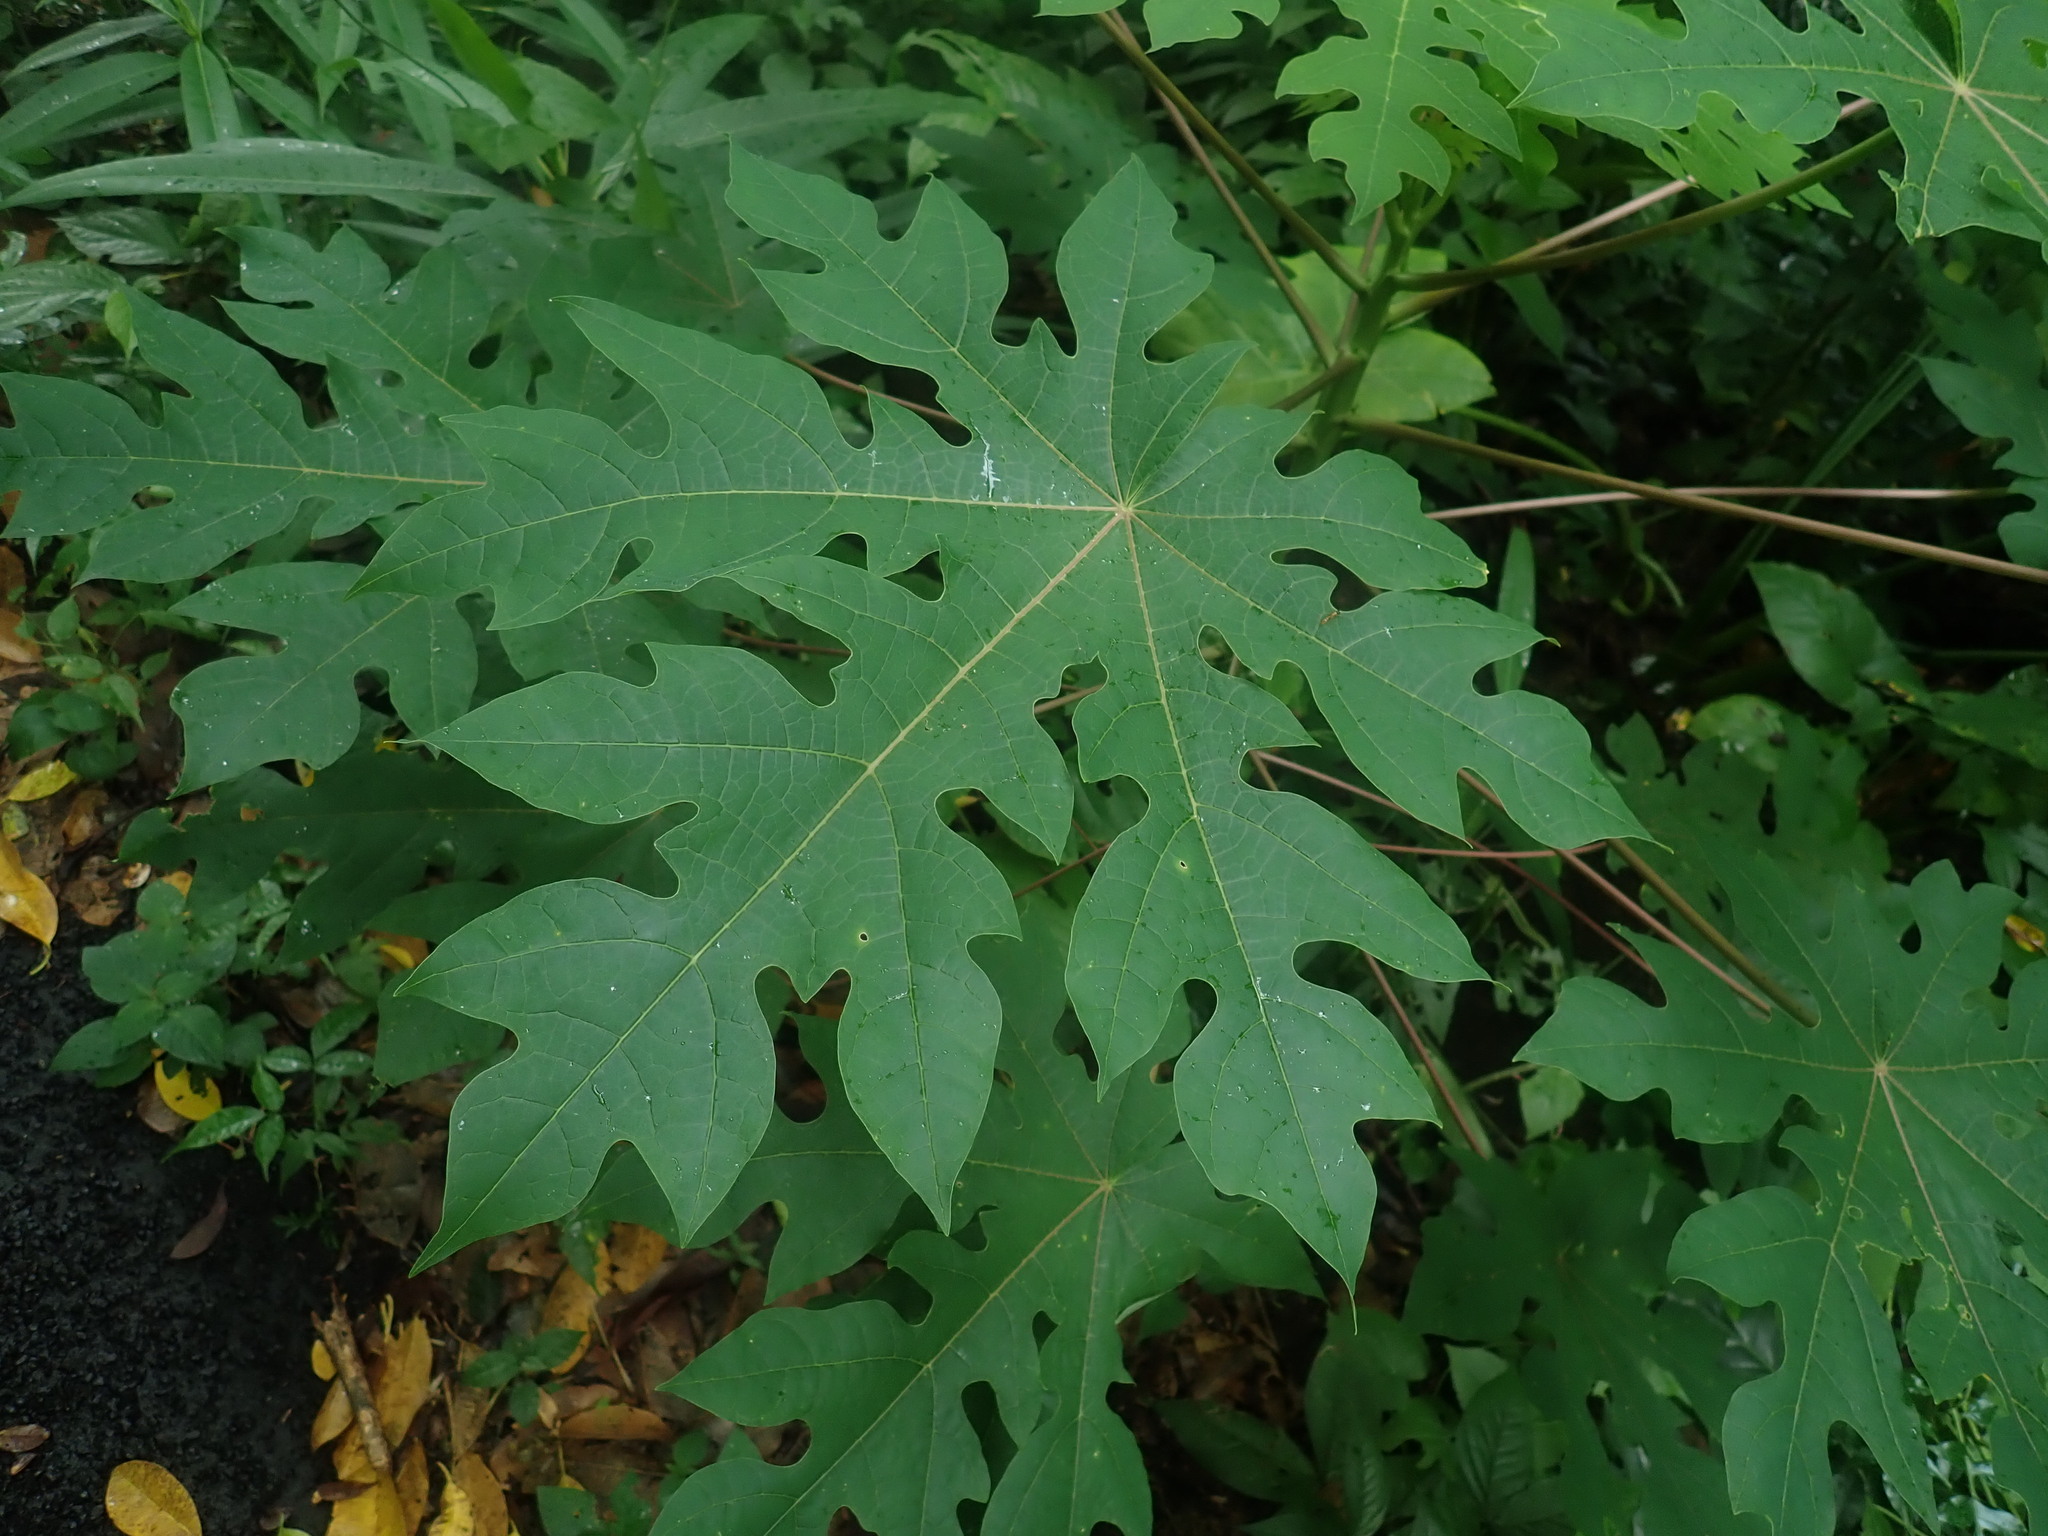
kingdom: Plantae
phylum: Tracheophyta
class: Magnoliopsida
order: Brassicales
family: Caricaceae
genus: Carica
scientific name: Carica papaya
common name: Papaya
